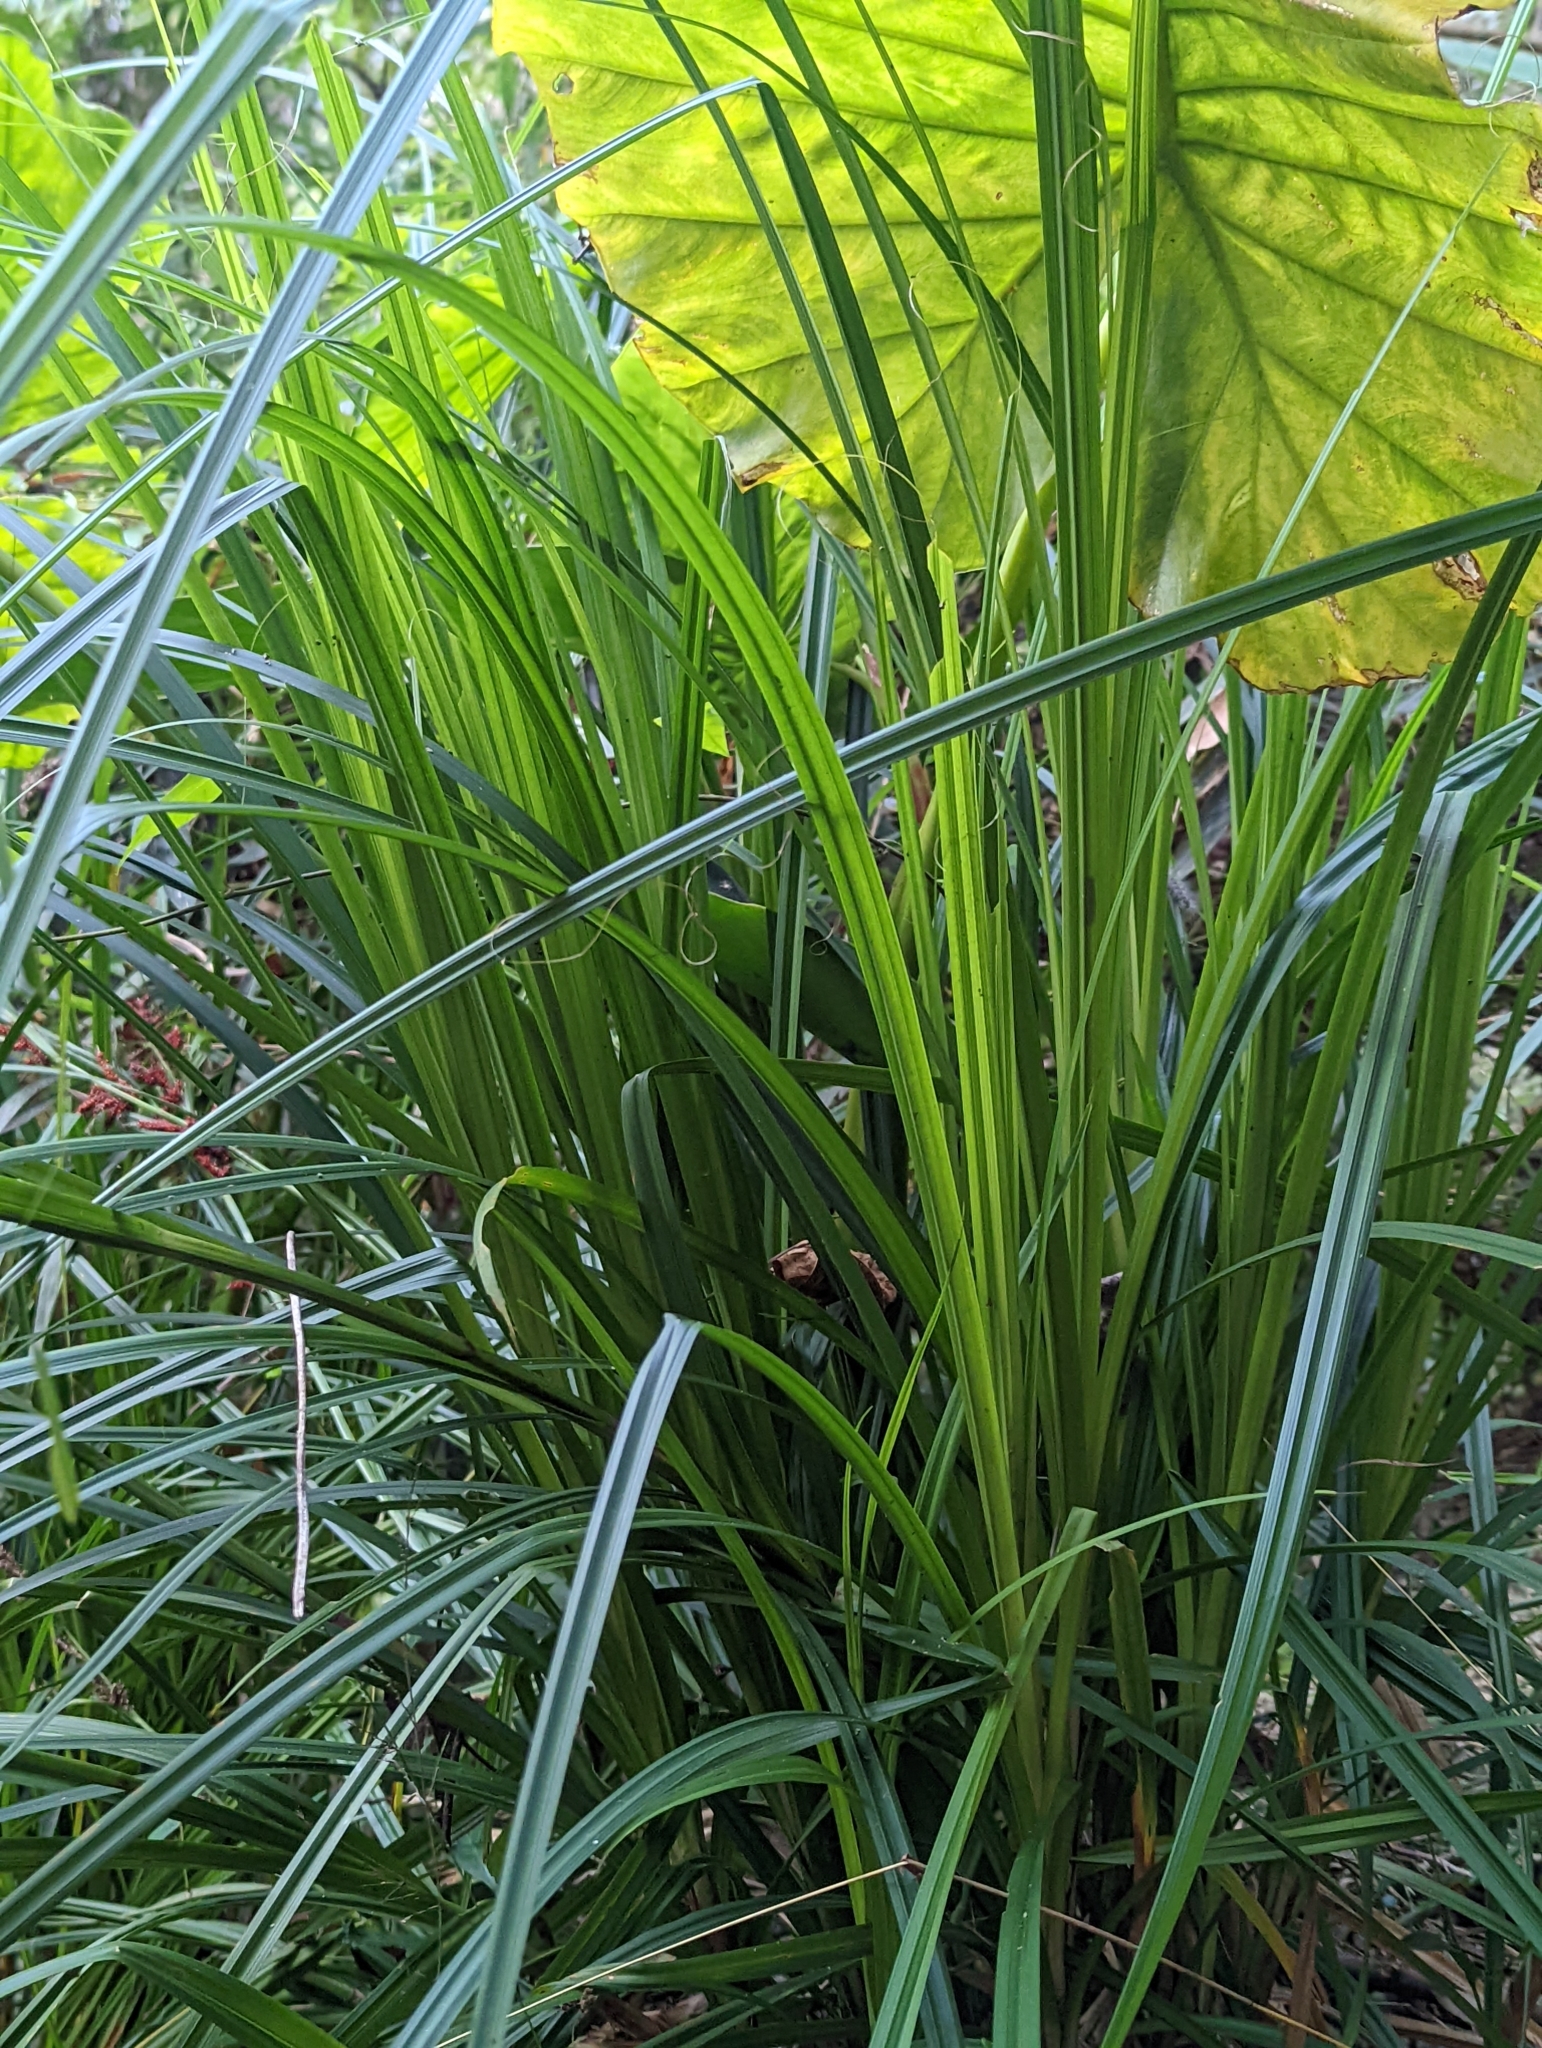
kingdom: Plantae
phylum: Tracheophyta
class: Liliopsida
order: Poales
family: Cyperaceae
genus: Carex
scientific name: Carex baccans
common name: Crimson seeded sedge
